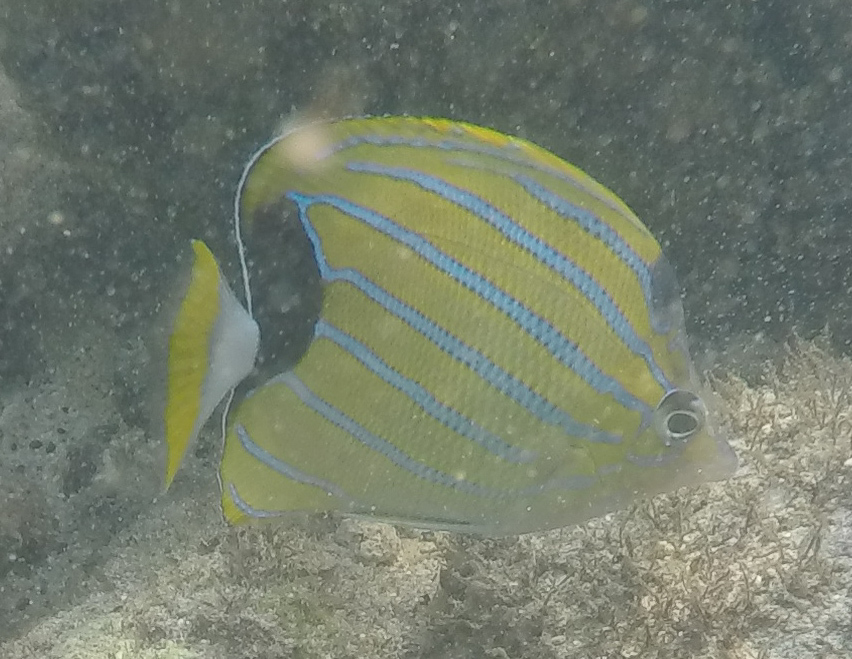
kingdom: Animalia
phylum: Chordata
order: Perciformes
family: Chaetodontidae
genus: Chaetodon
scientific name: Chaetodon fremblii
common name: Bluestriped butterflyfish
